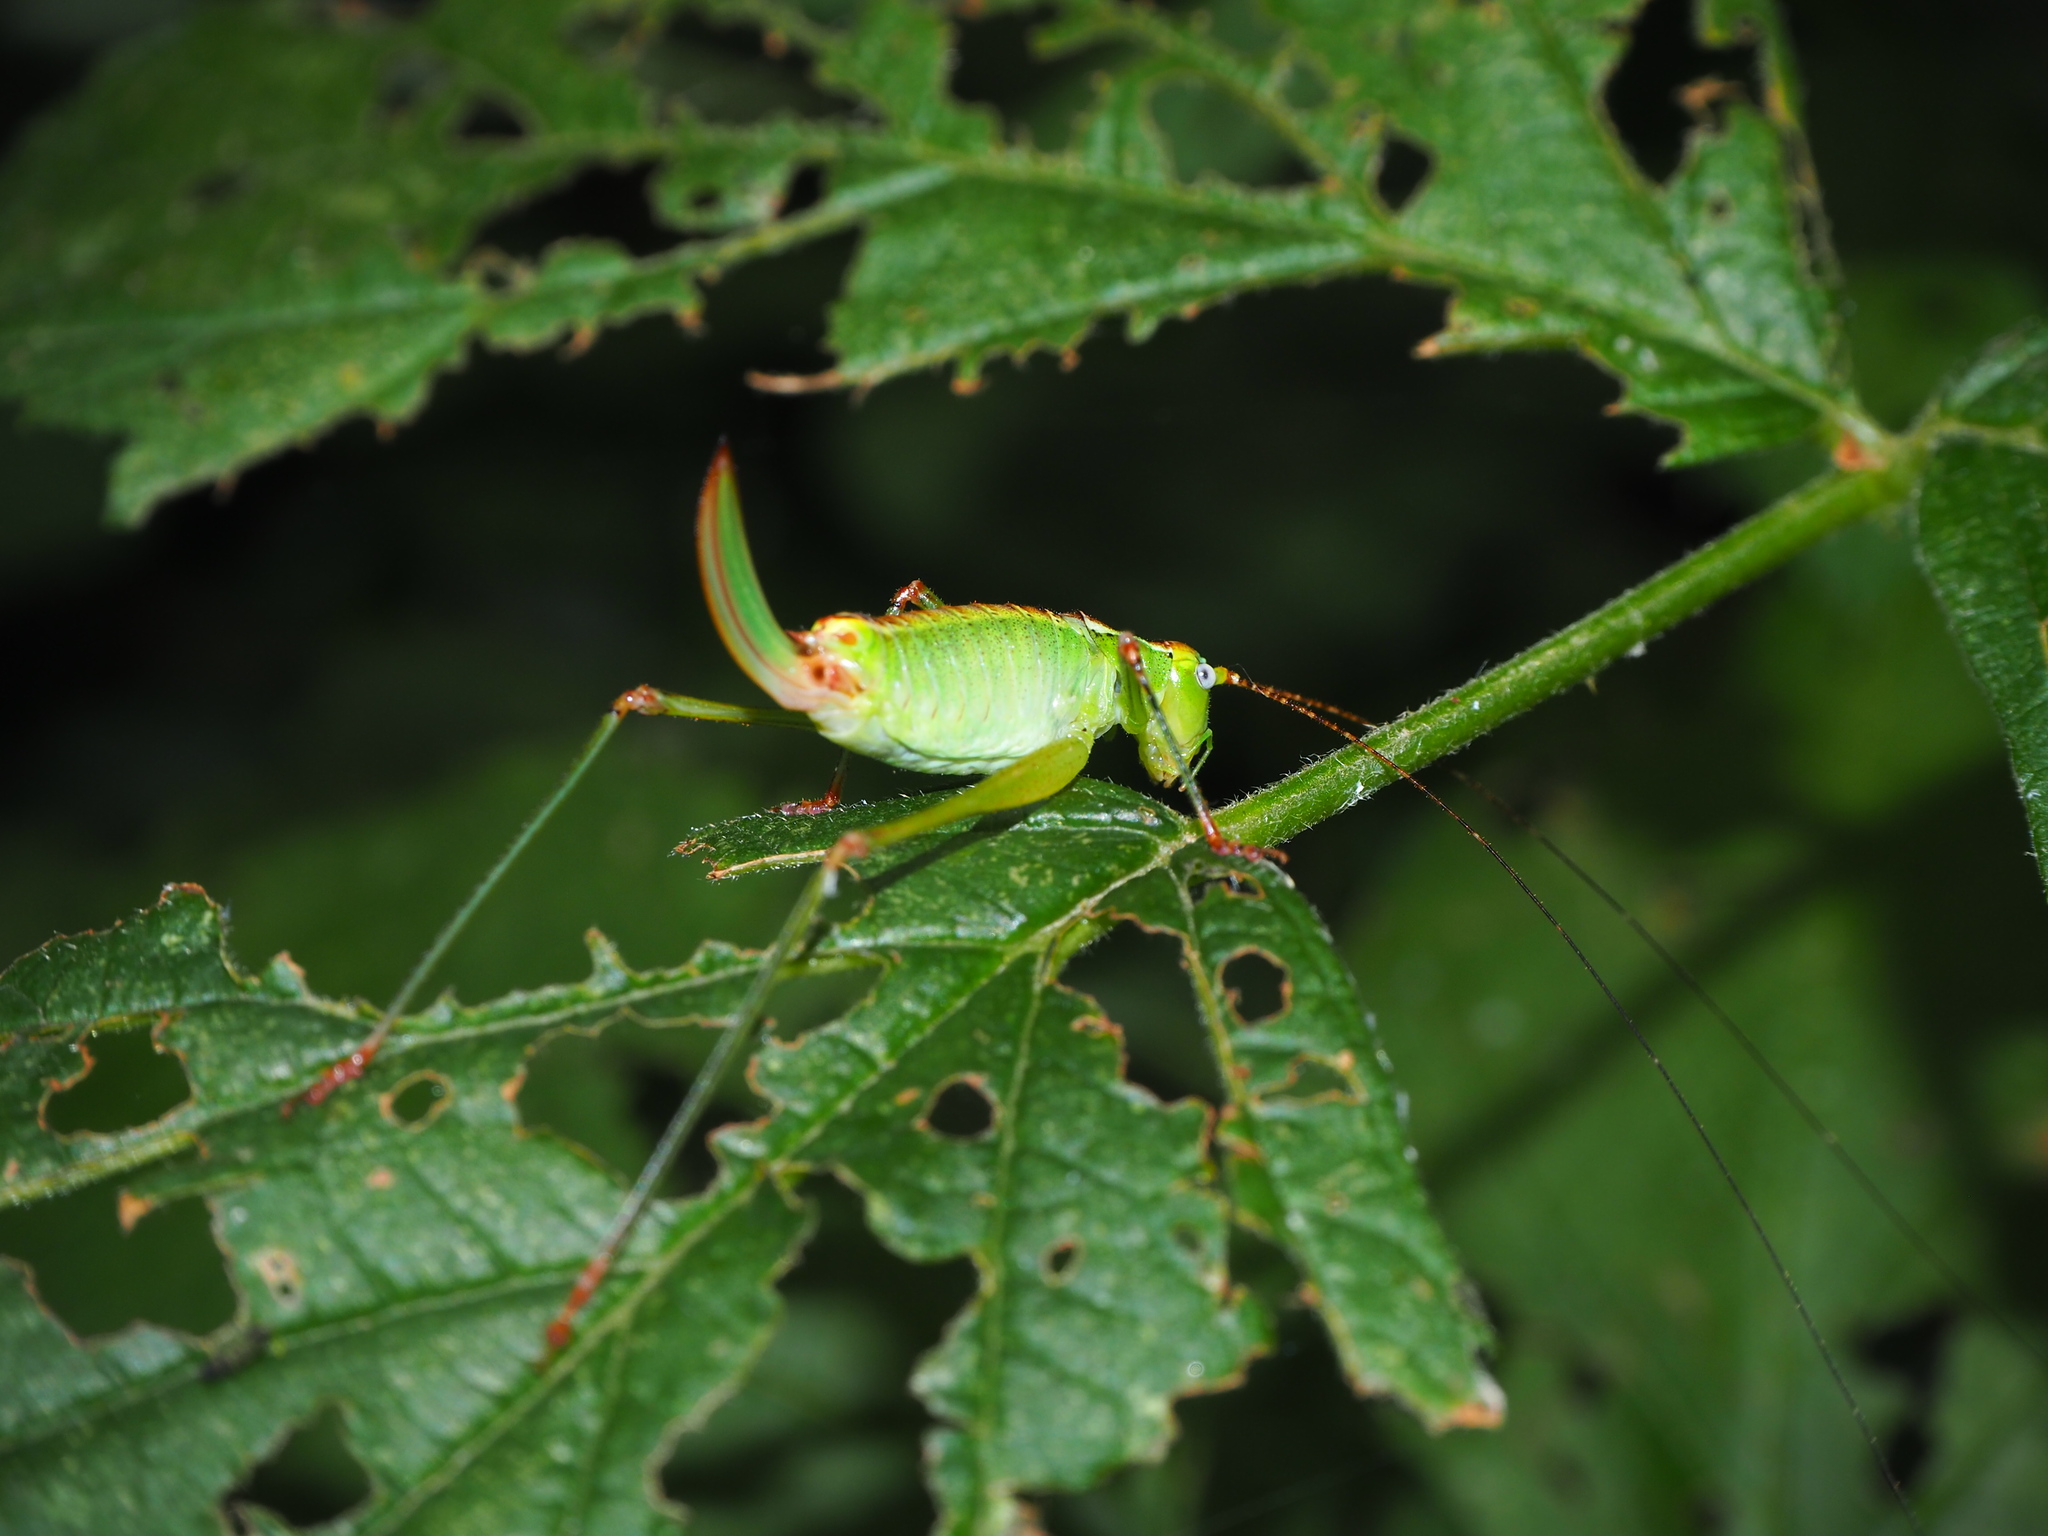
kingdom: Animalia
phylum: Arthropoda
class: Insecta
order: Orthoptera
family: Tettigoniidae
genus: Andreiniimon
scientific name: Andreiniimon nuptialis
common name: Splendid bush-cricket
